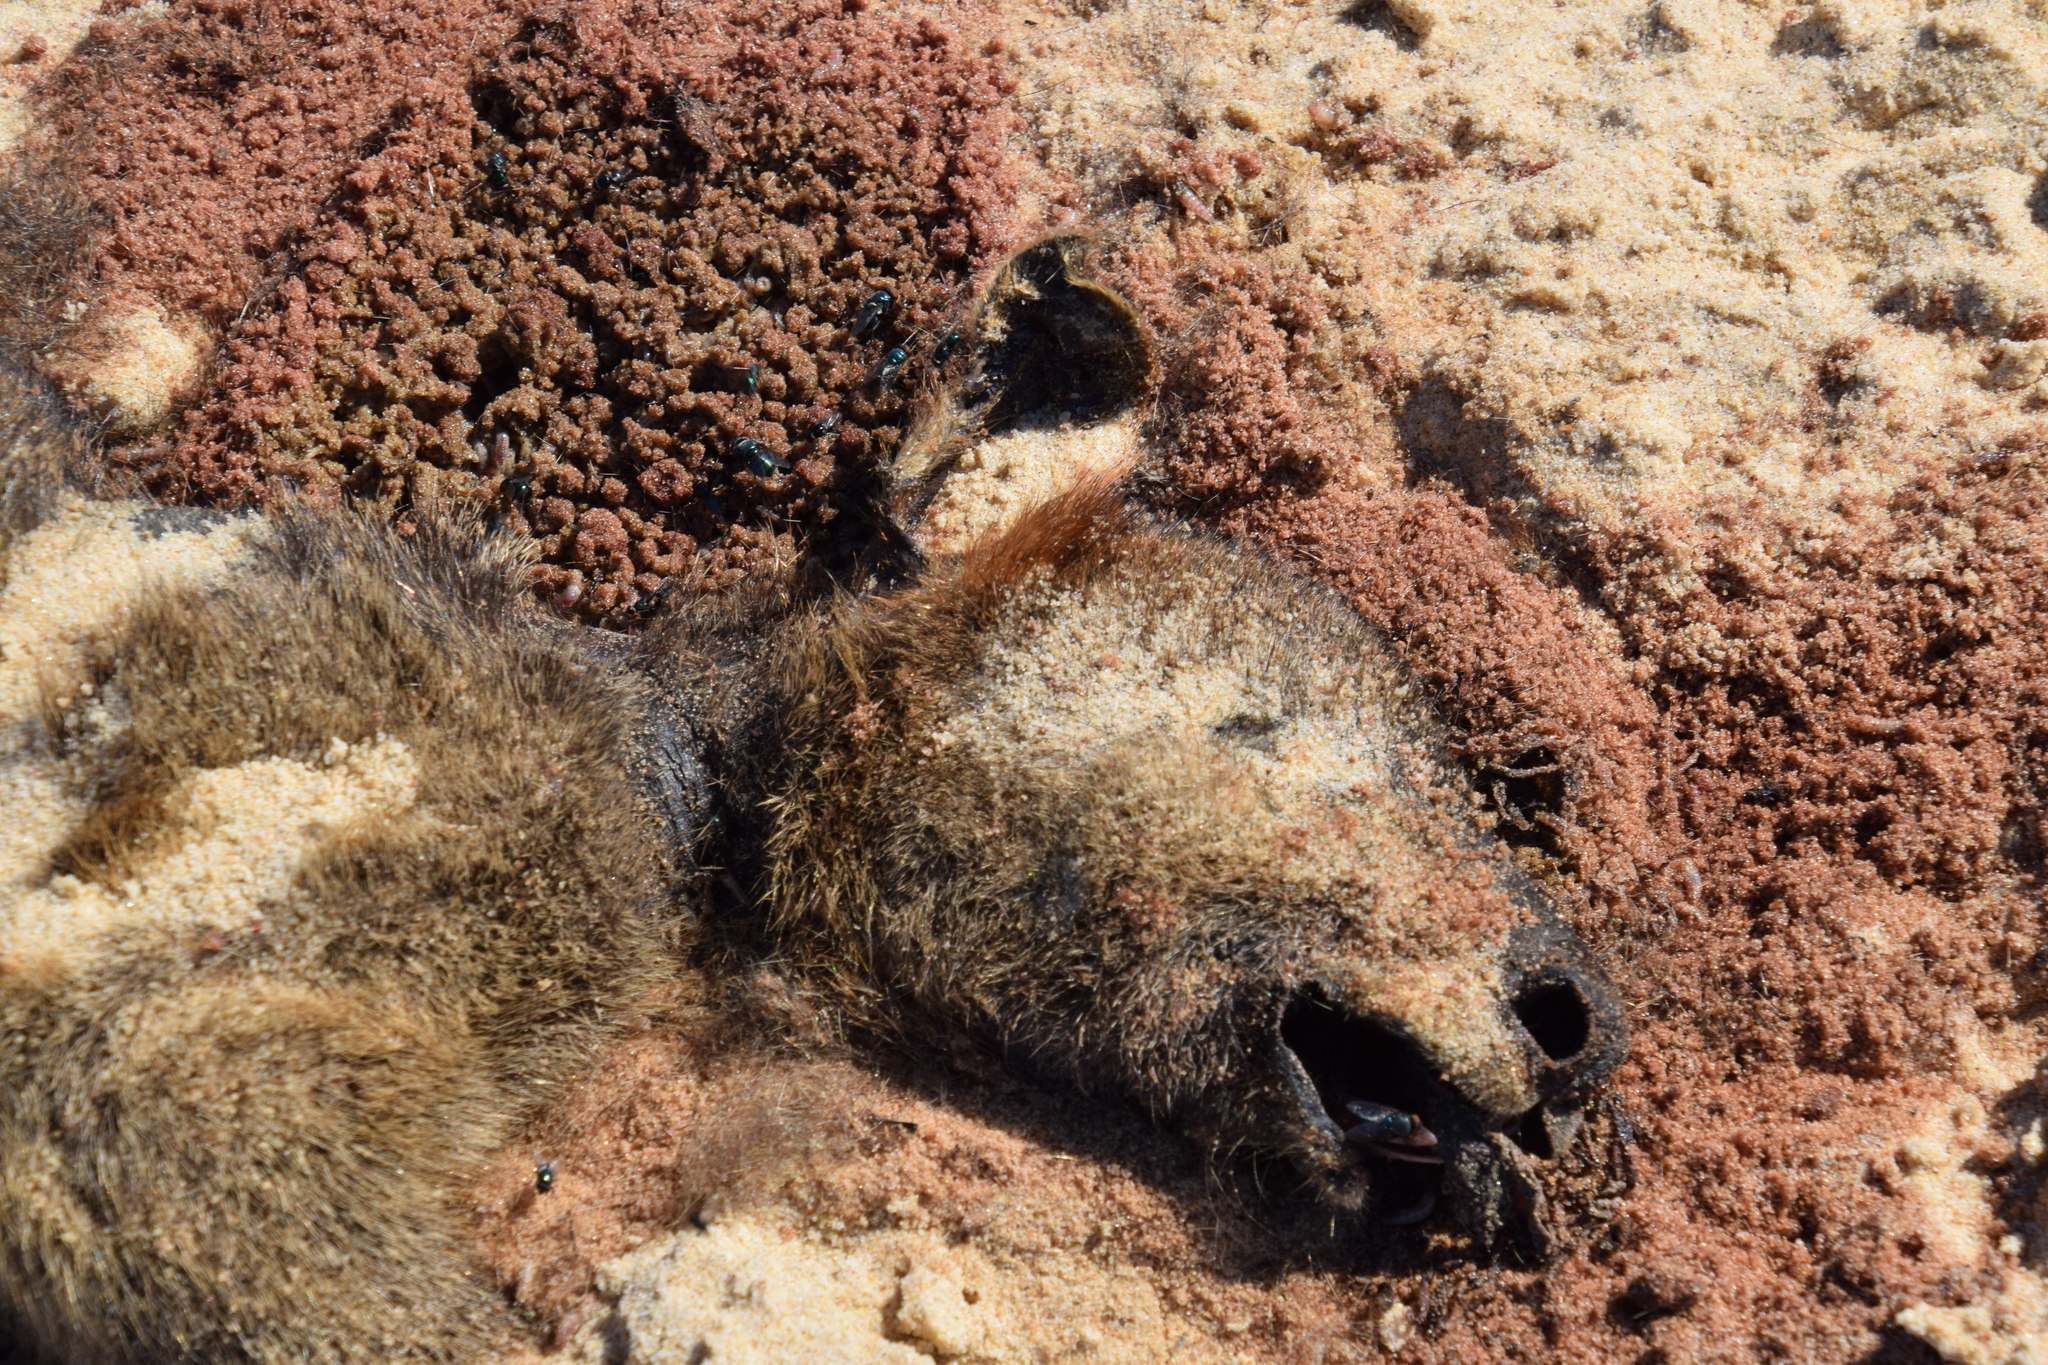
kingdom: Animalia
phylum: Chordata
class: Mammalia
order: Diprotodontia
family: Macropodidae
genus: Wallabia
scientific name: Wallabia bicolor
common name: Swamp wallaby
